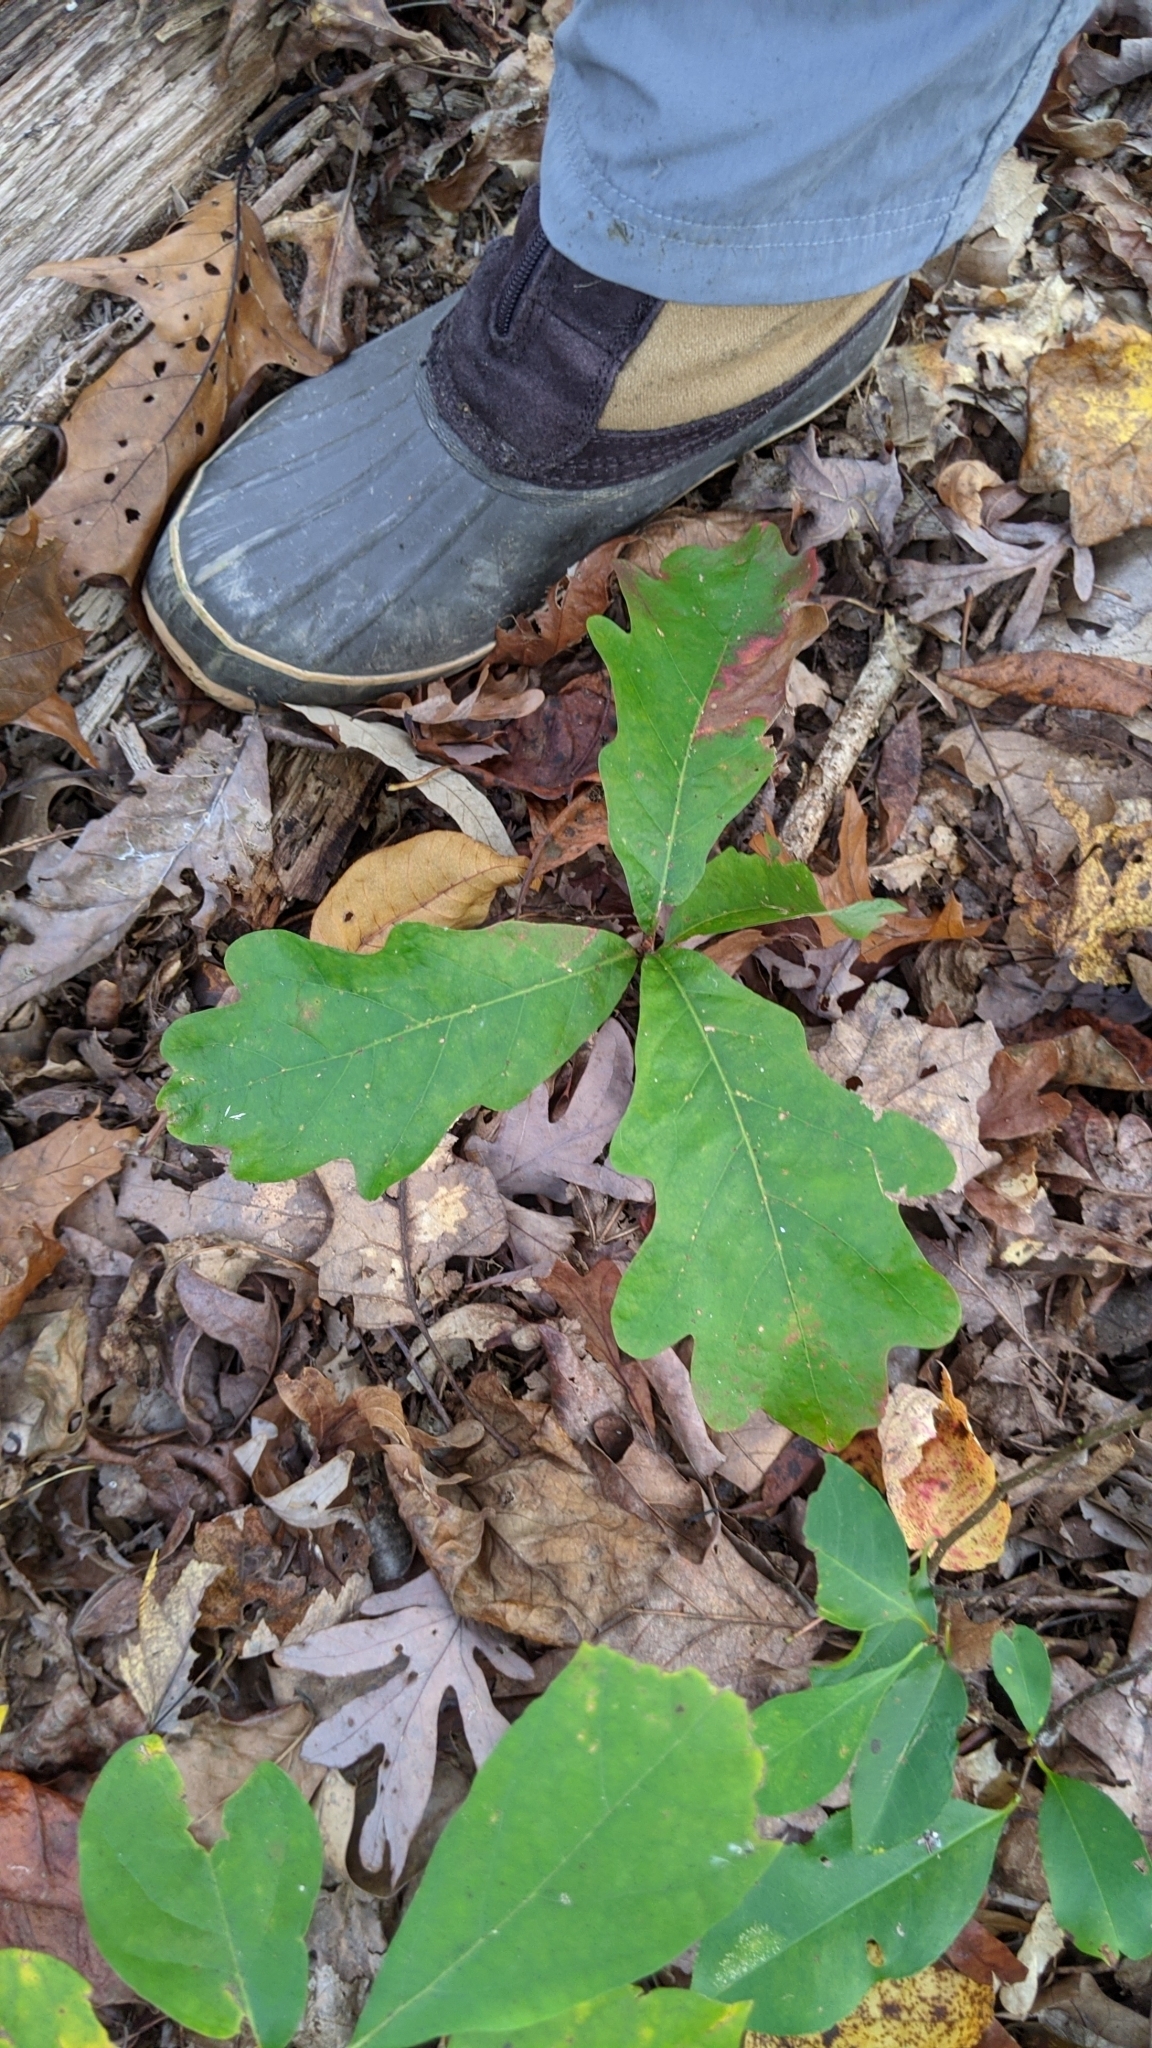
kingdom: Plantae
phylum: Tracheophyta
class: Magnoliopsida
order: Fagales
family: Fagaceae
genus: Quercus
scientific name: Quercus alba
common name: White oak
